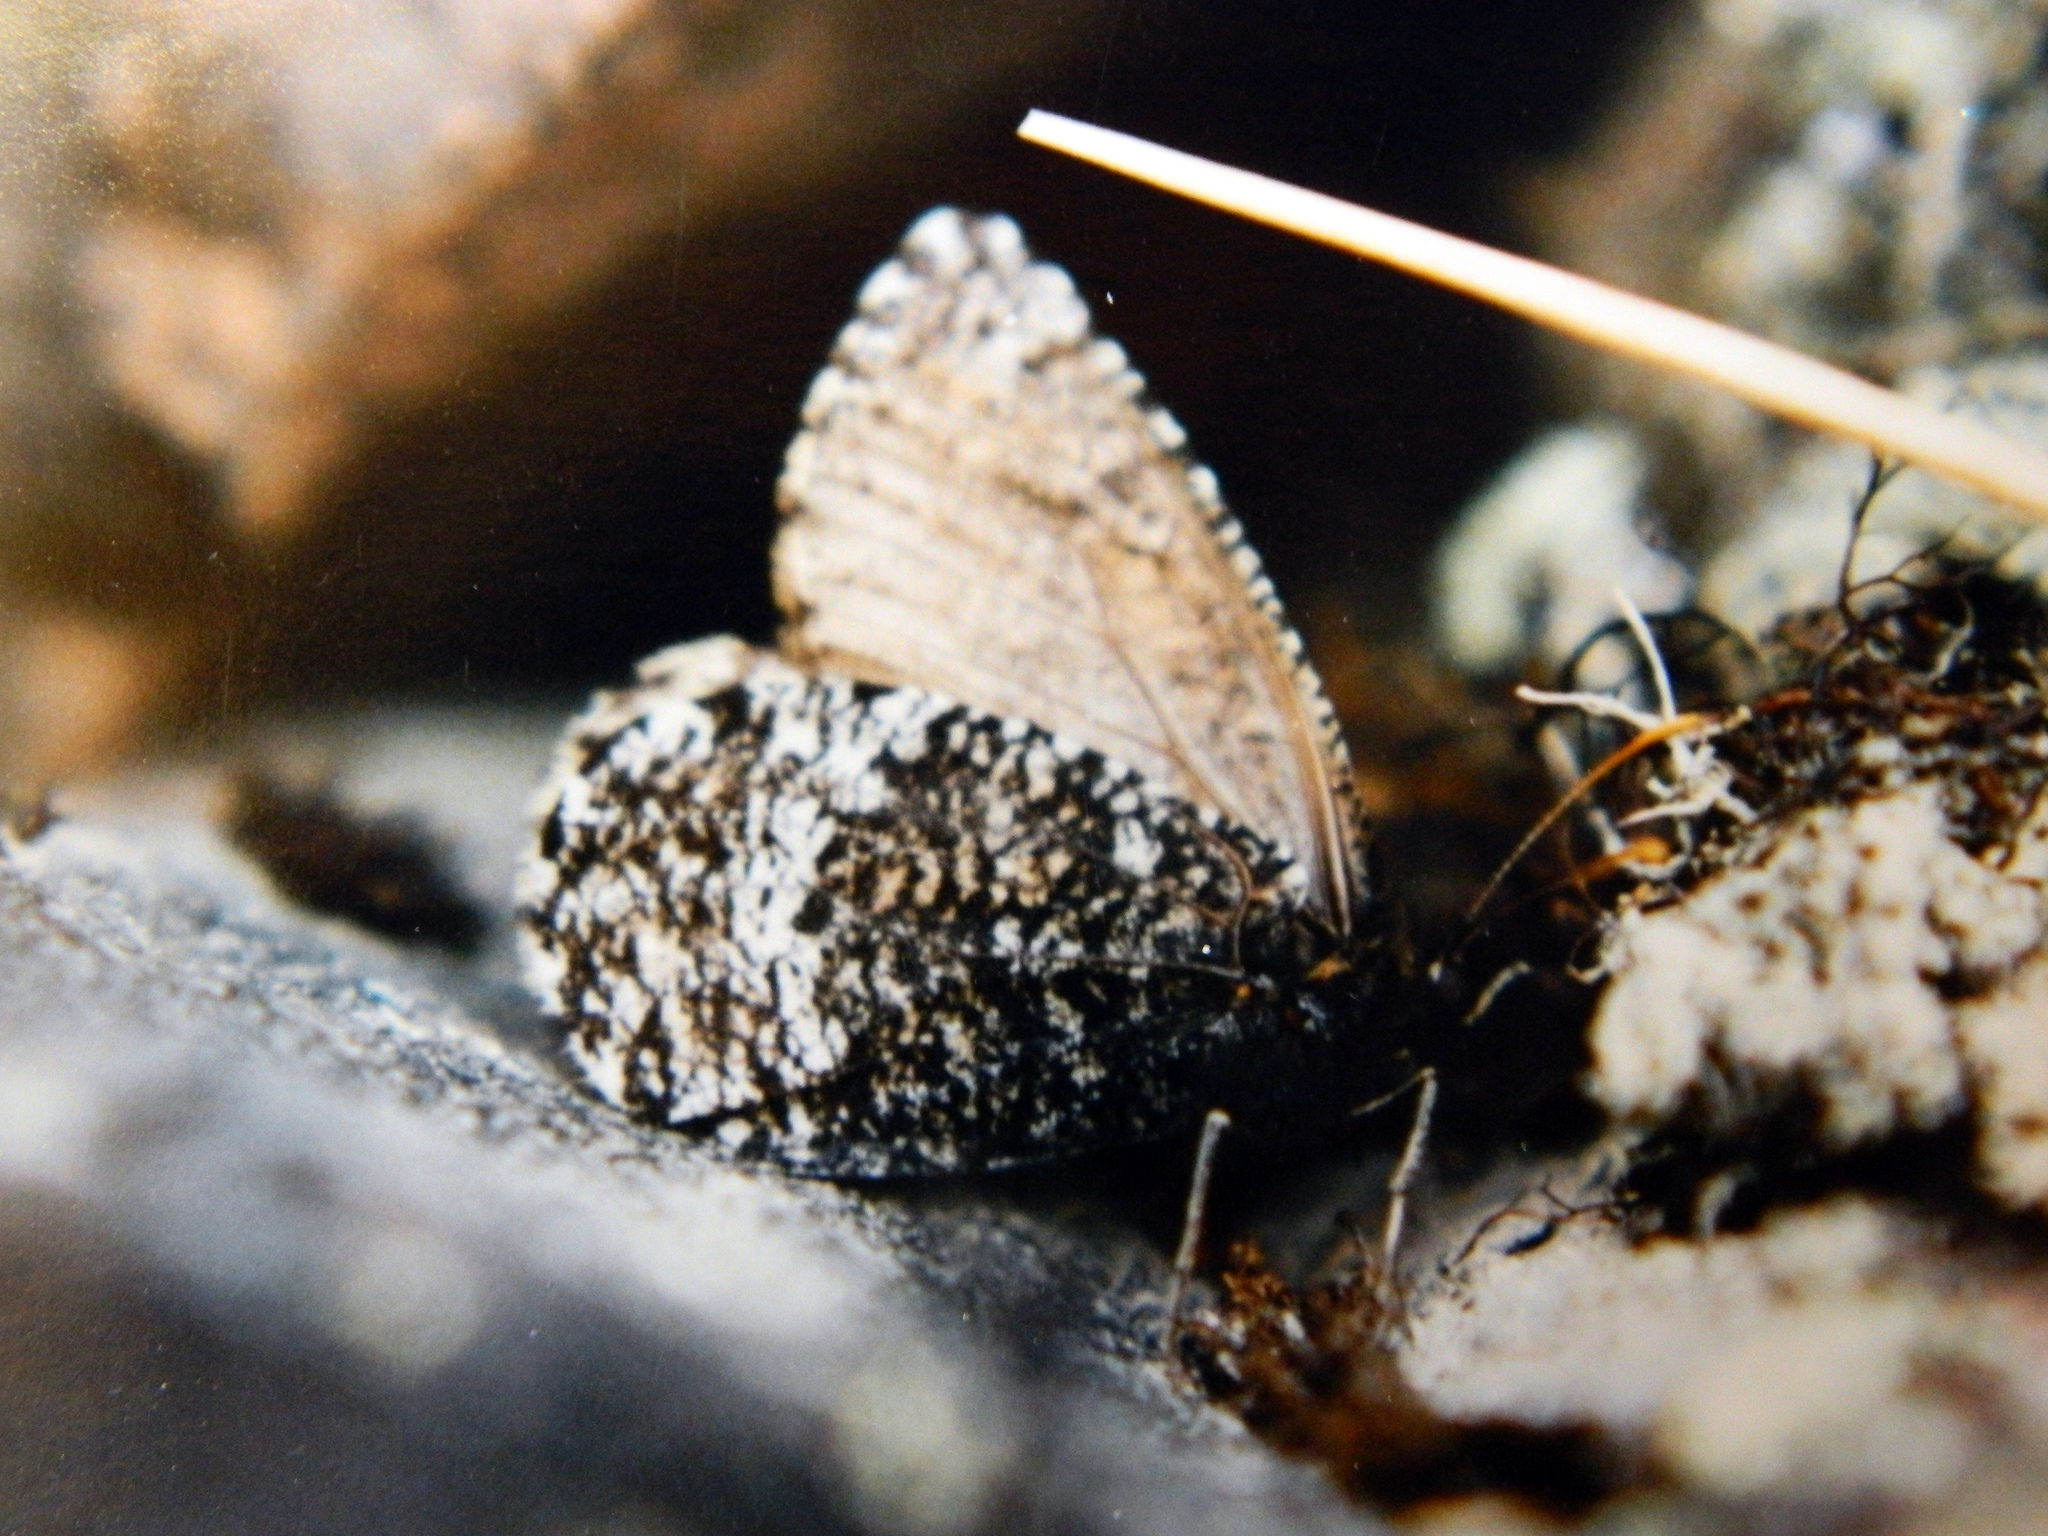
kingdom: Animalia
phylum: Arthropoda
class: Insecta
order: Lepidoptera
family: Nymphalidae
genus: Oeneis
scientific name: Oeneis melissa
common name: Melissa arctic
